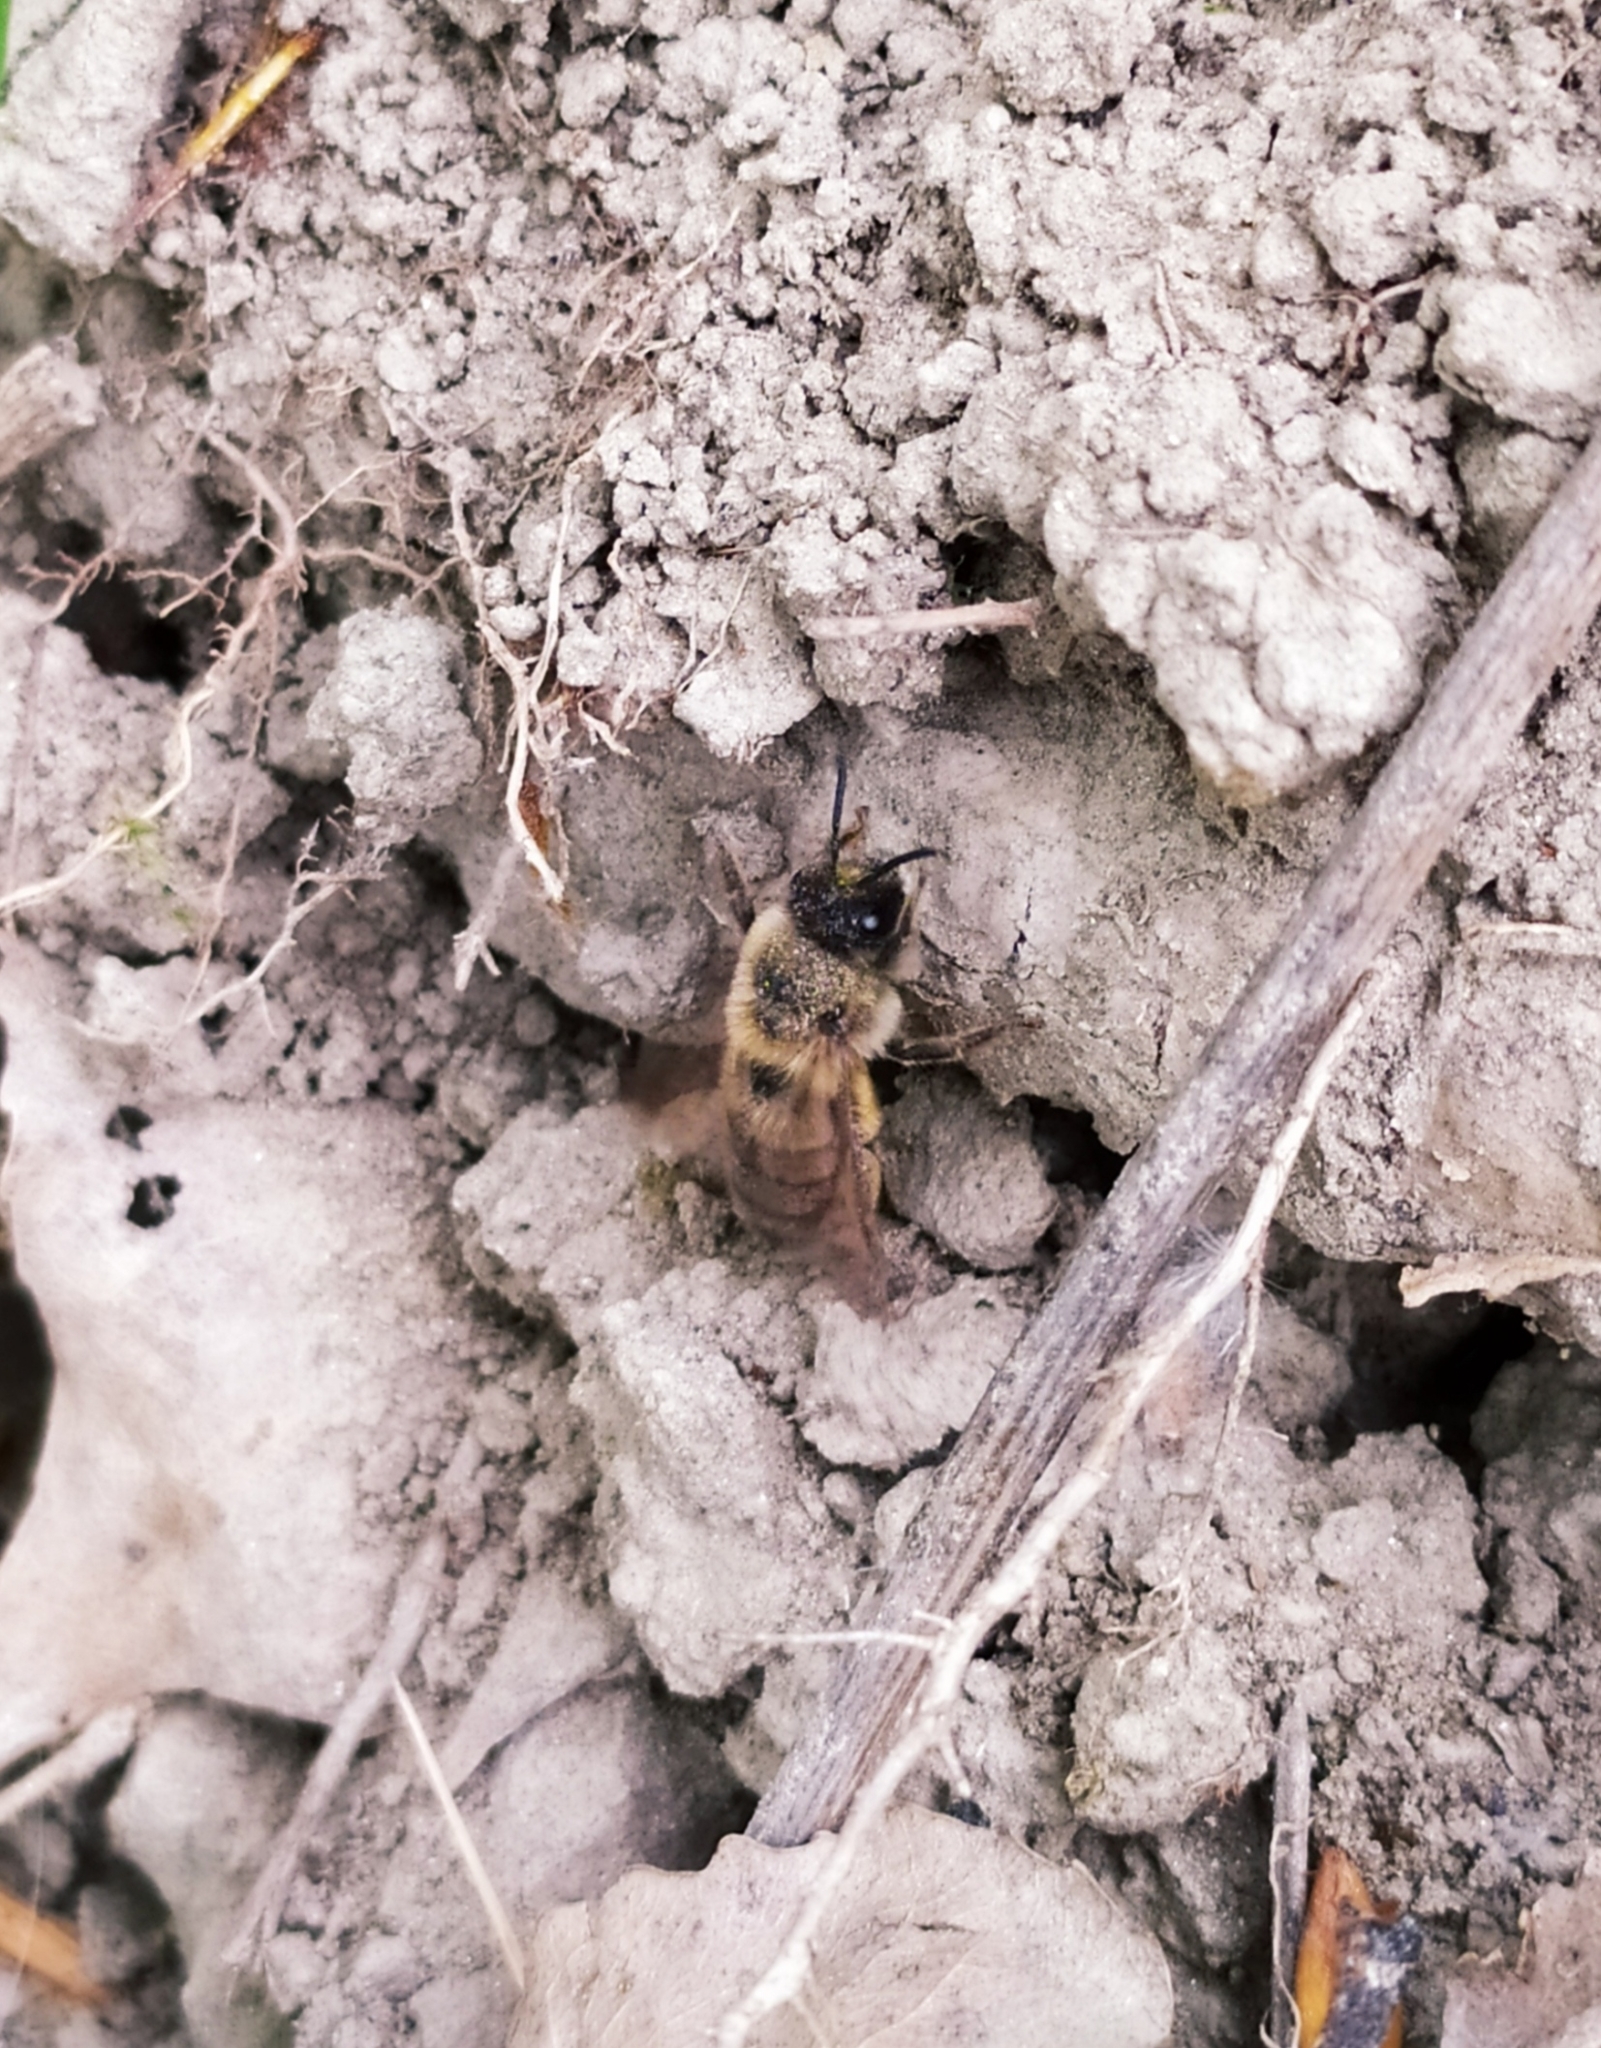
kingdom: Animalia
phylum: Arthropoda
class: Insecta
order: Hymenoptera
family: Colletidae
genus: Colletes
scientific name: Colletes cunicularius
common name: Early colletes
